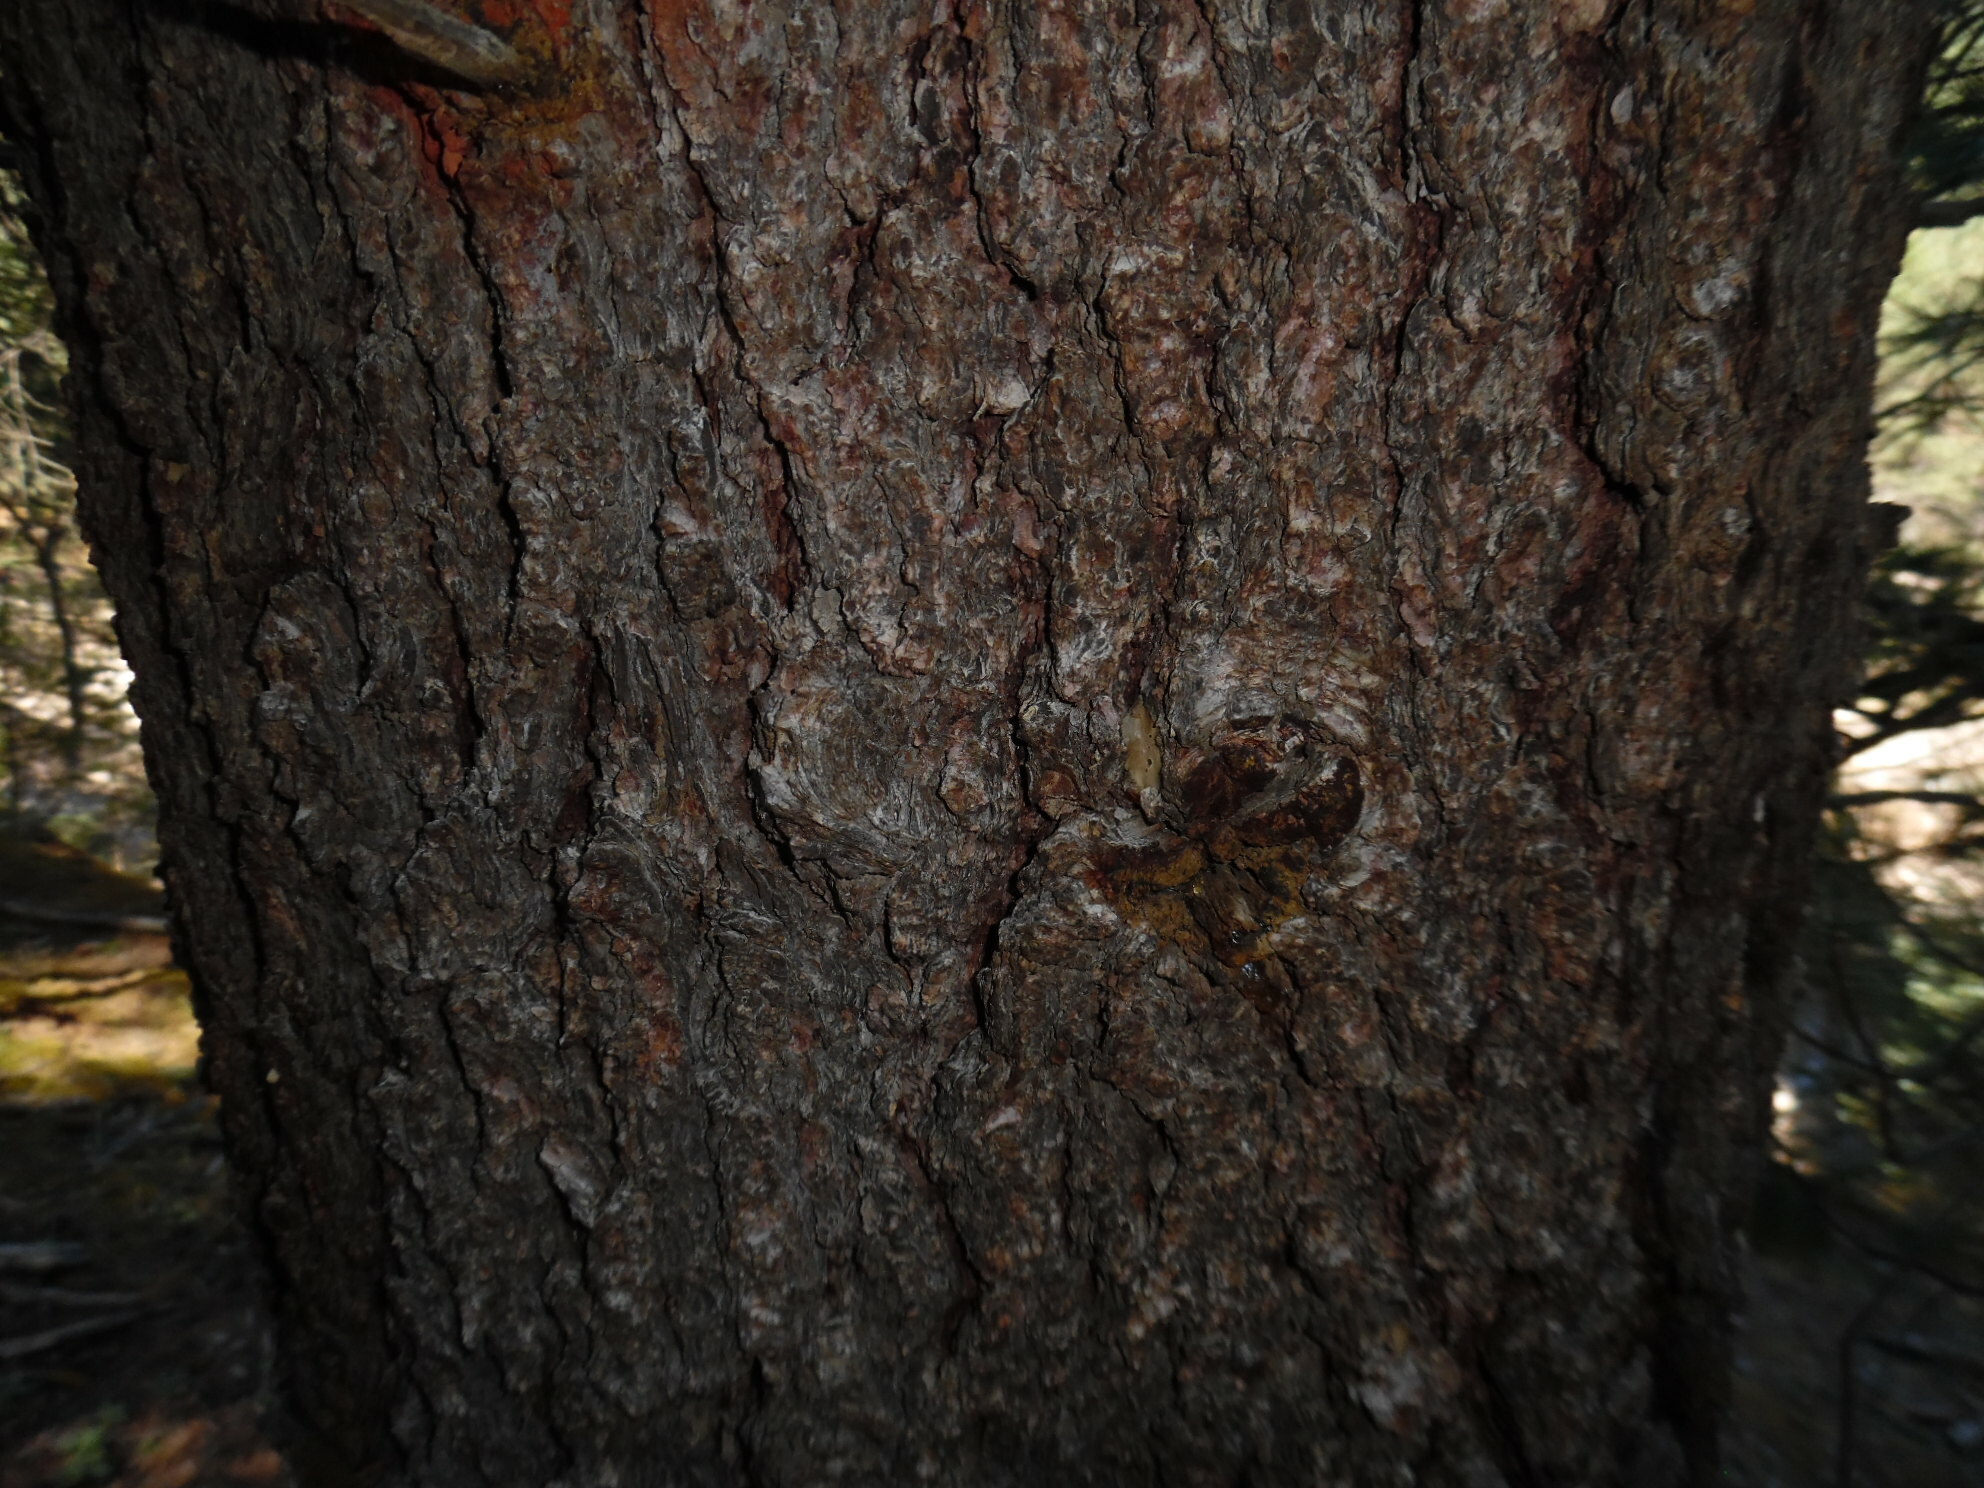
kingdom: Plantae
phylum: Tracheophyta
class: Pinopsida
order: Pinales
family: Pinaceae
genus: Pinus
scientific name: Pinus strobiformis
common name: Southwestern white pine
